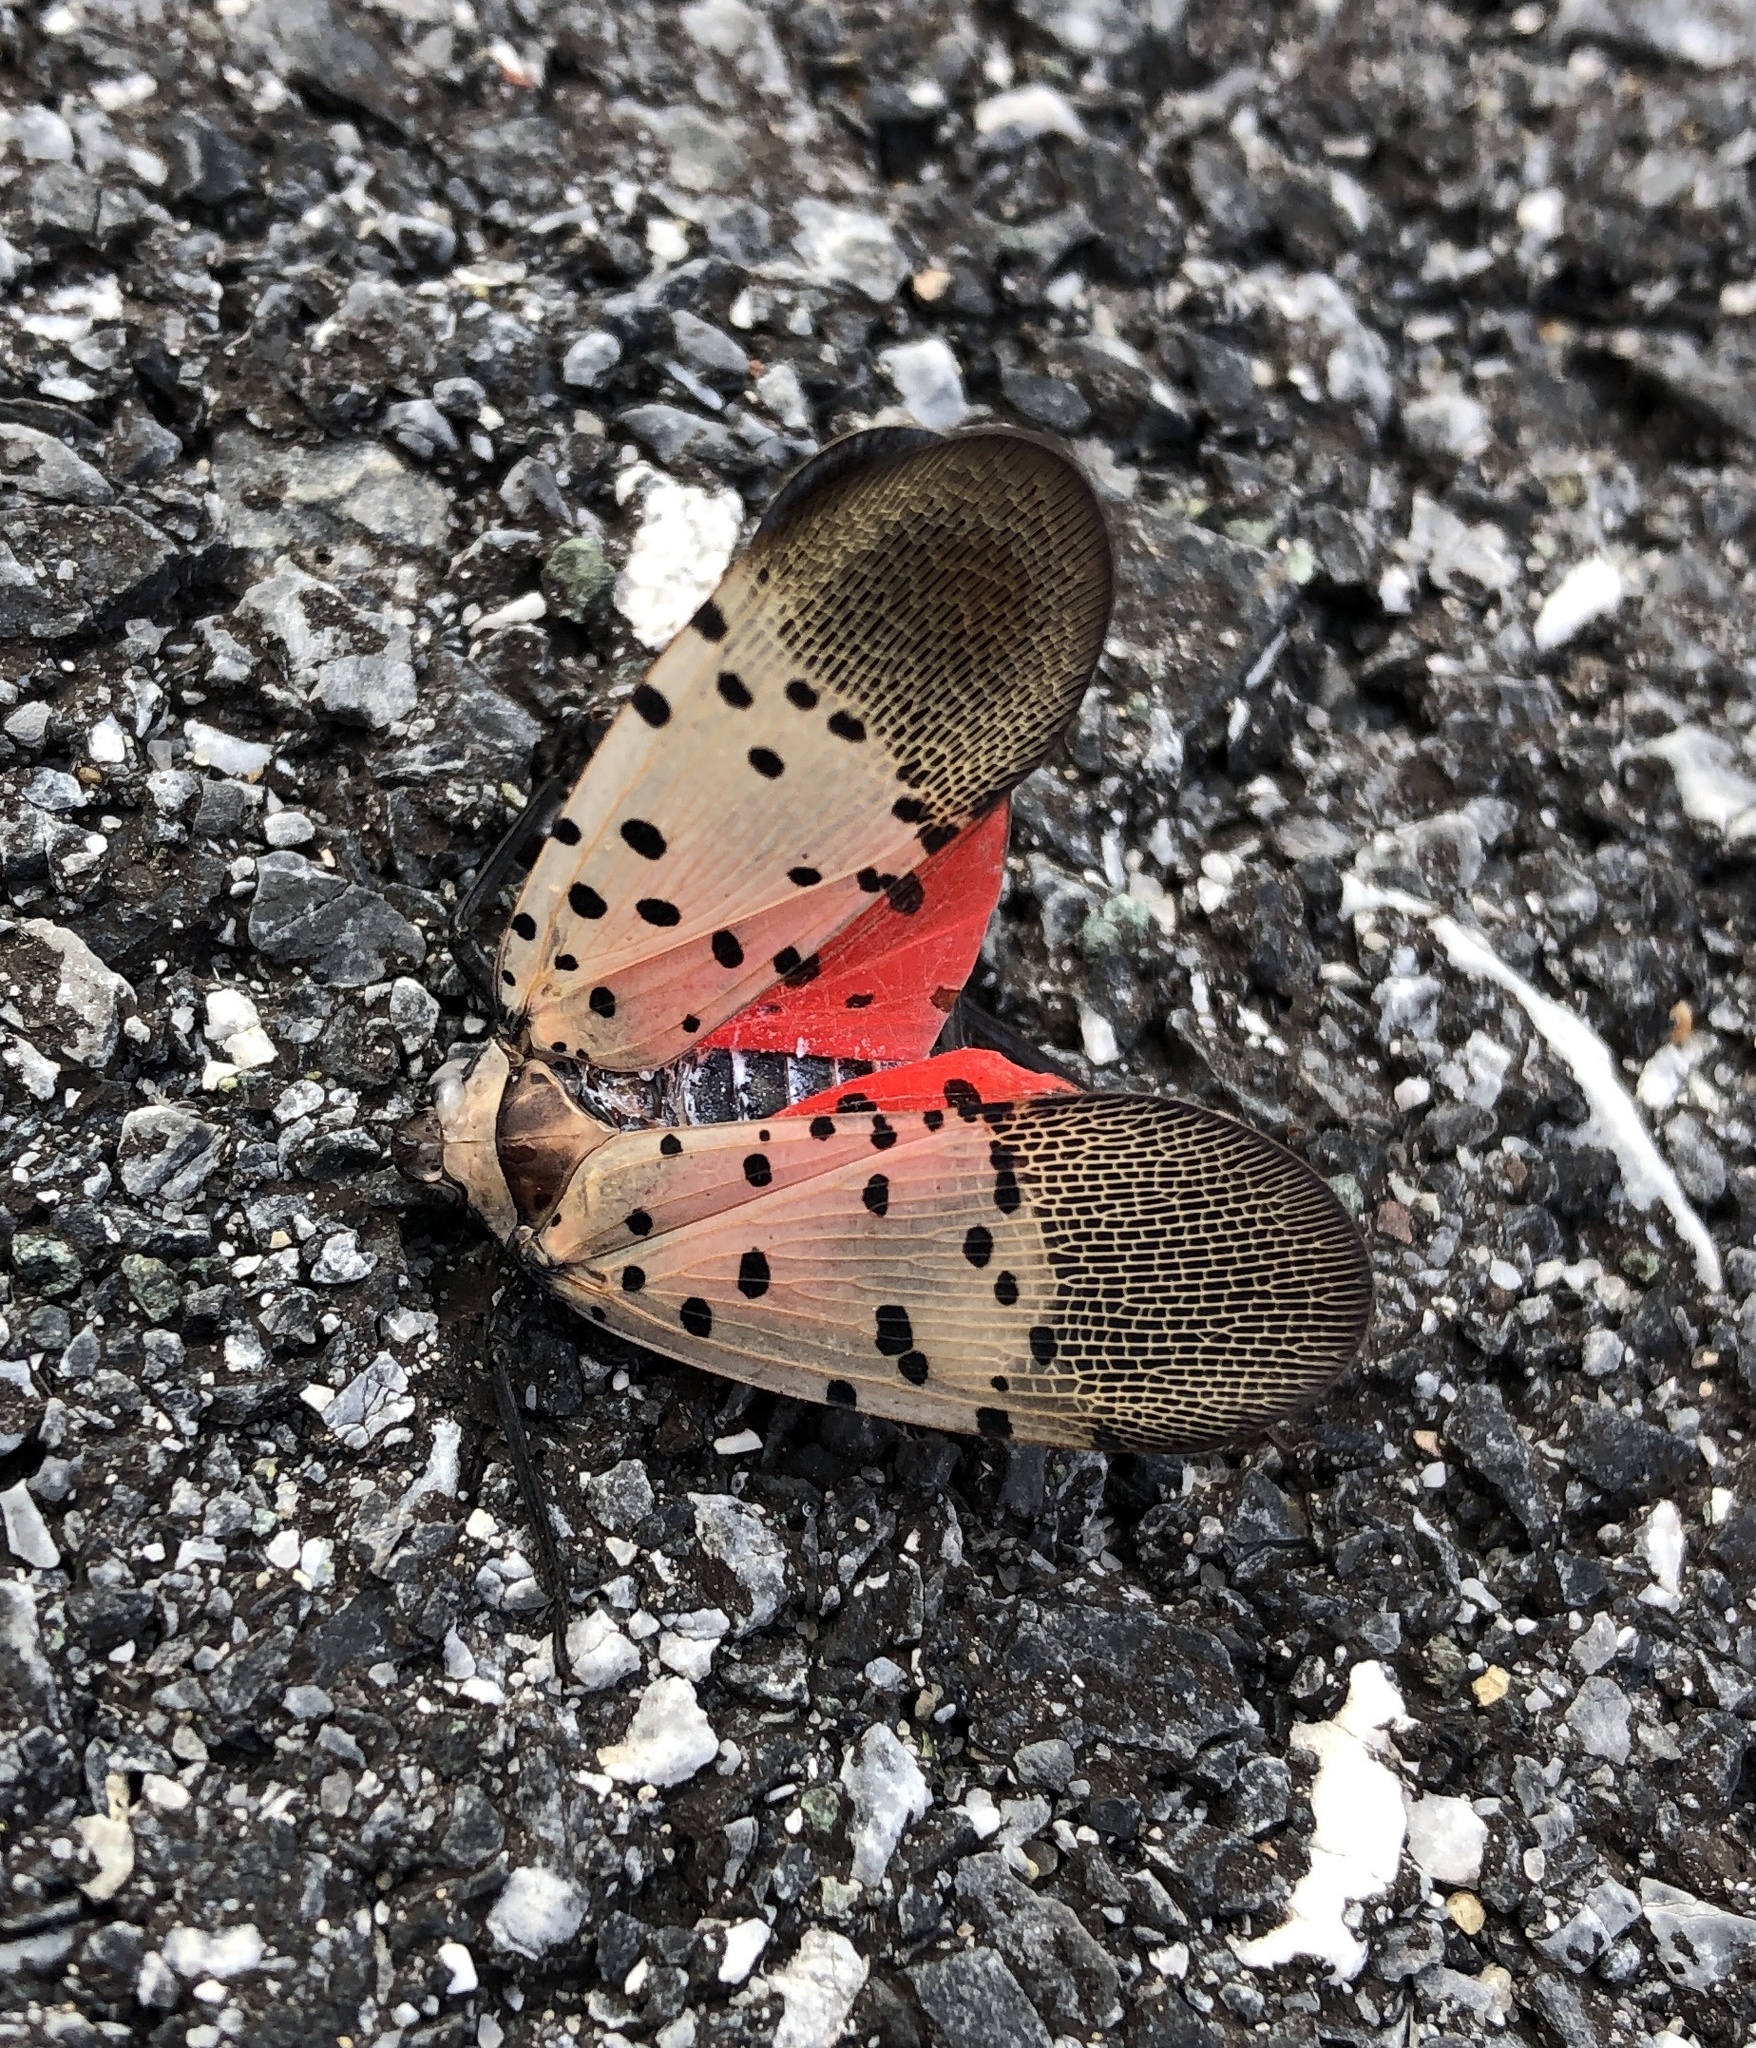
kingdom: Animalia
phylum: Arthropoda
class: Insecta
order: Hemiptera
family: Fulgoridae
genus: Lycorma
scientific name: Lycorma delicatula
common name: Spotted lanternfly
